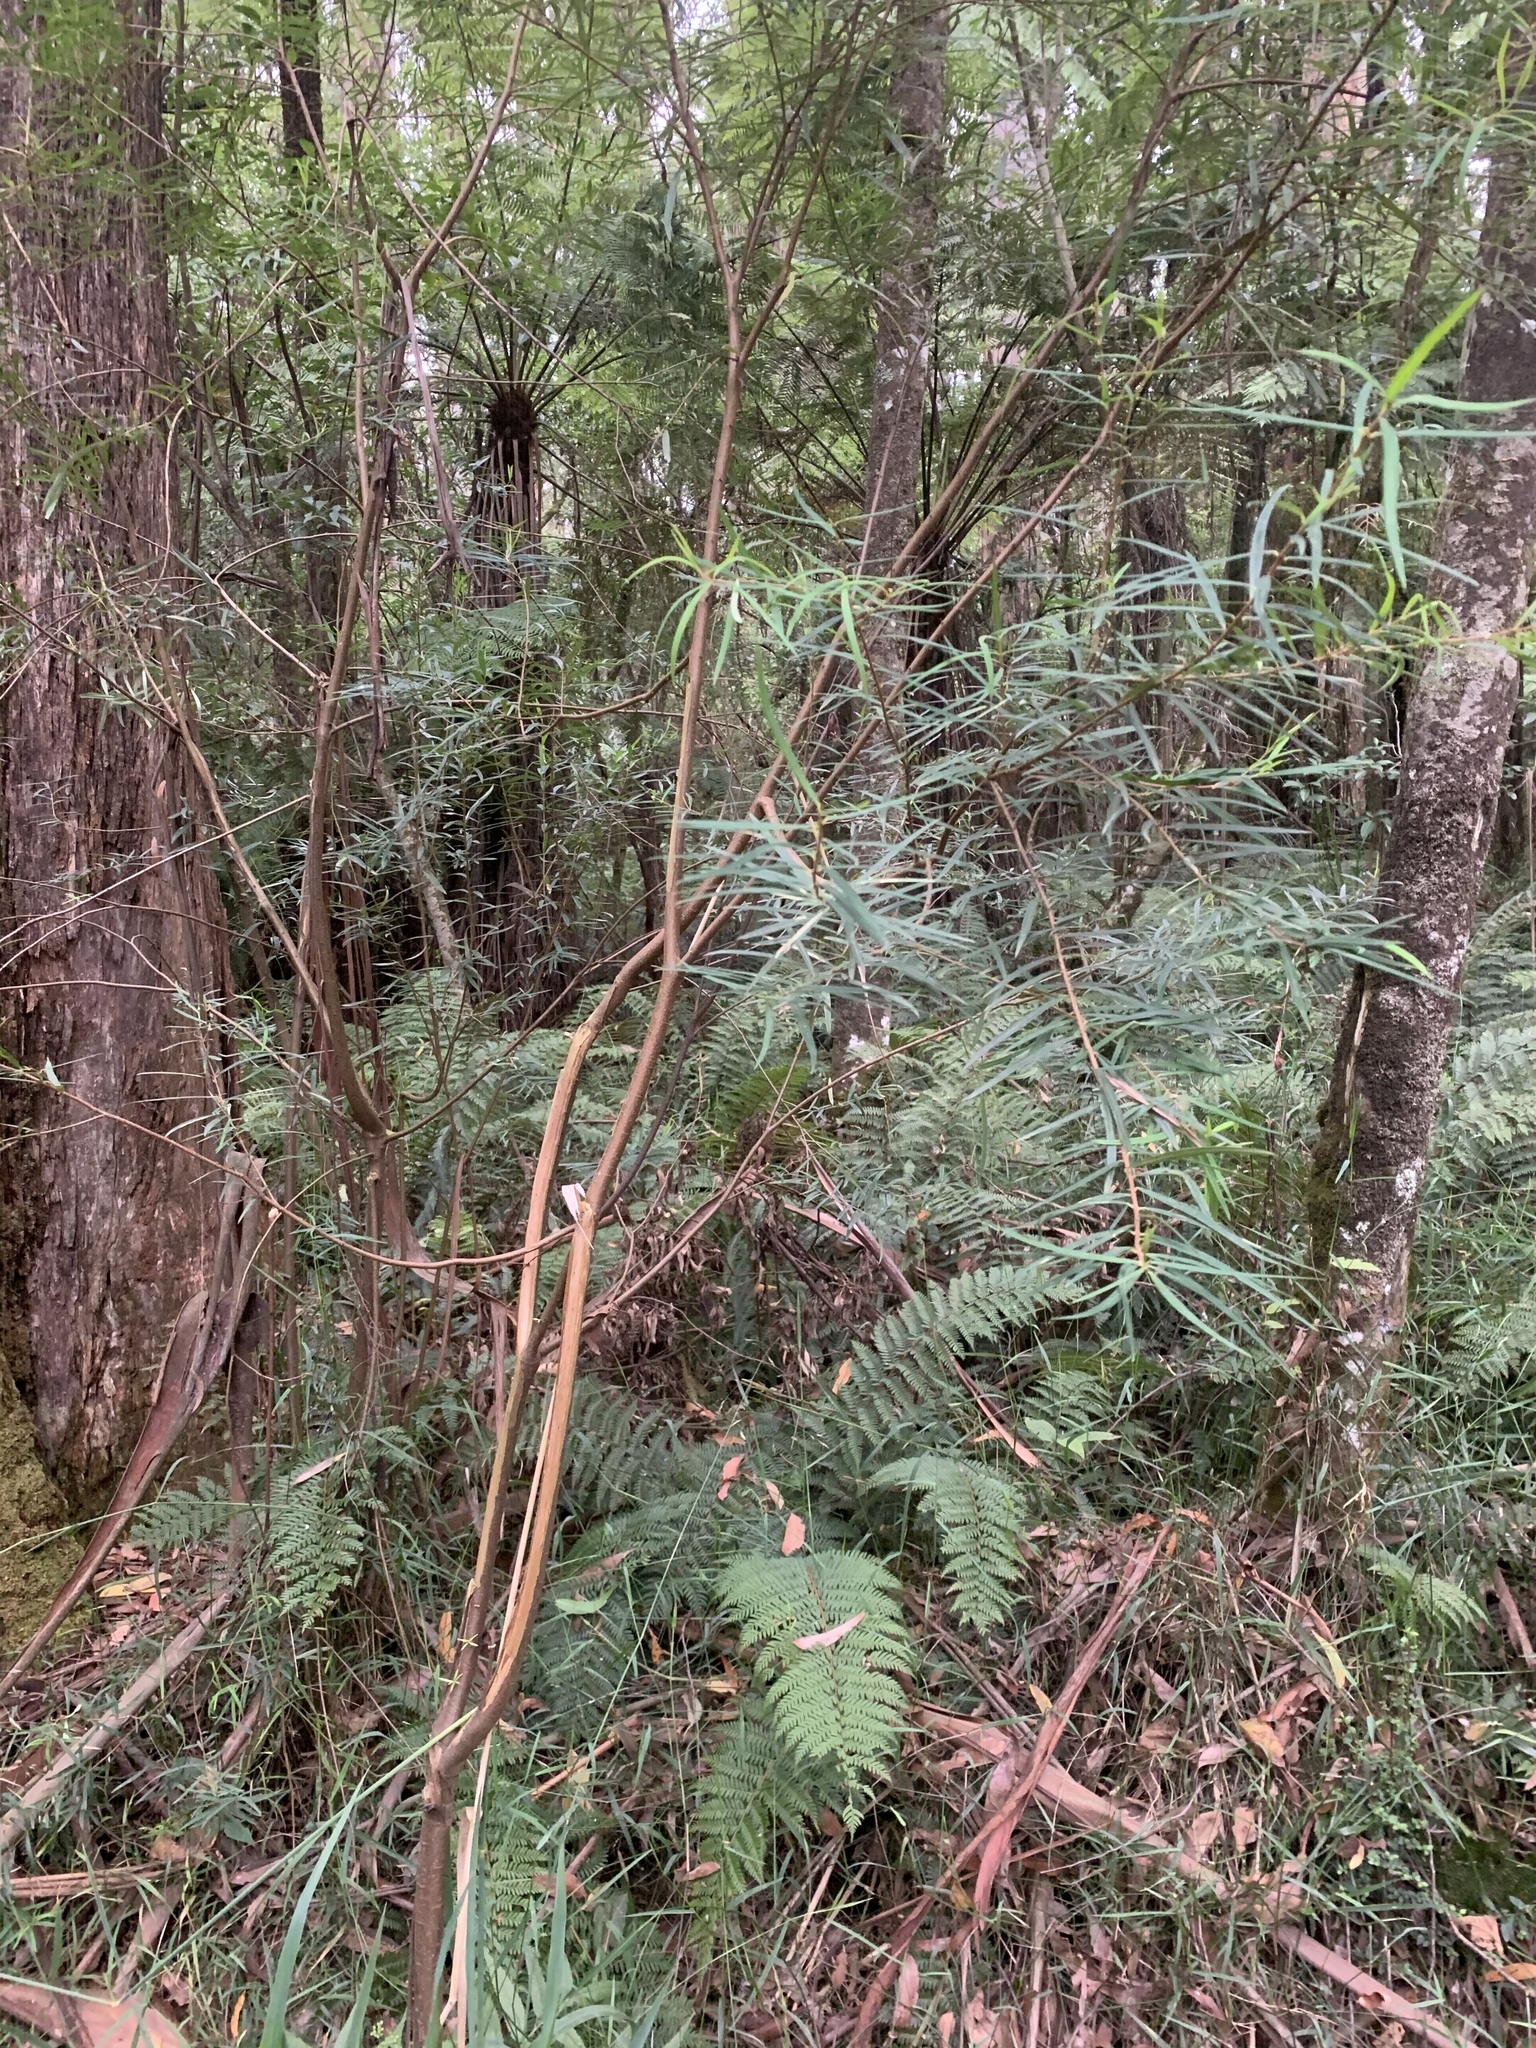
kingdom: Plantae
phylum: Tracheophyta
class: Magnoliopsida
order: Malvales
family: Thymelaeaceae
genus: Pimelea
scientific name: Pimelea axiflora
